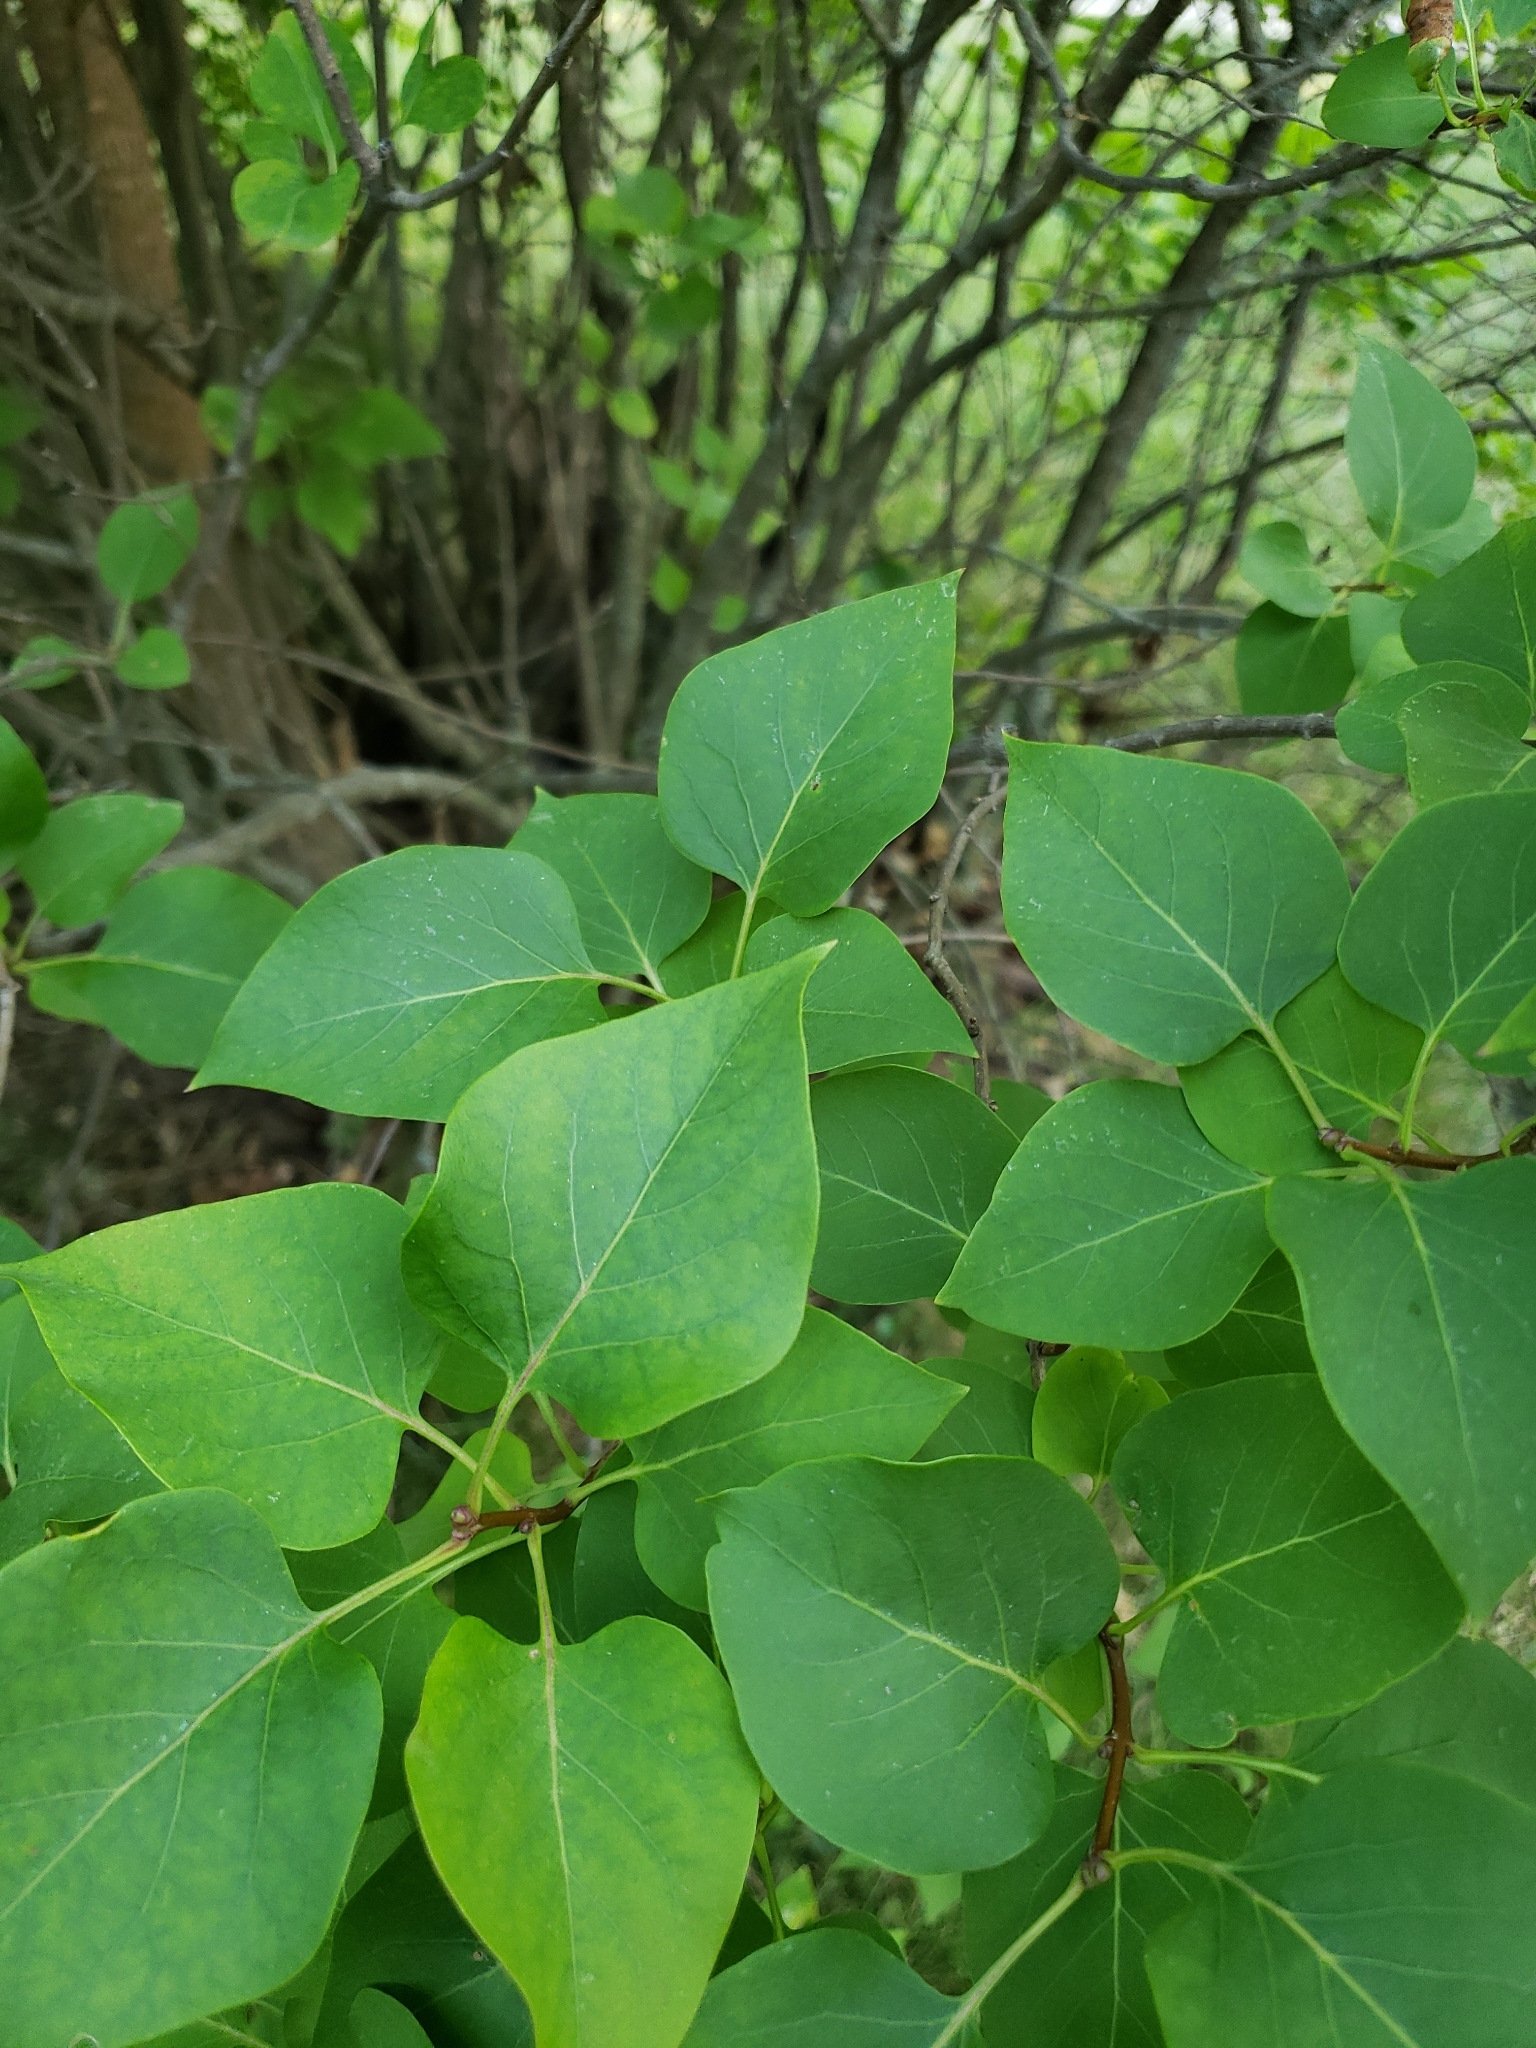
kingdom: Plantae
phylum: Tracheophyta
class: Magnoliopsida
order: Lamiales
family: Oleaceae
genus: Syringa
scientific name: Syringa vulgaris
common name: Common lilac
